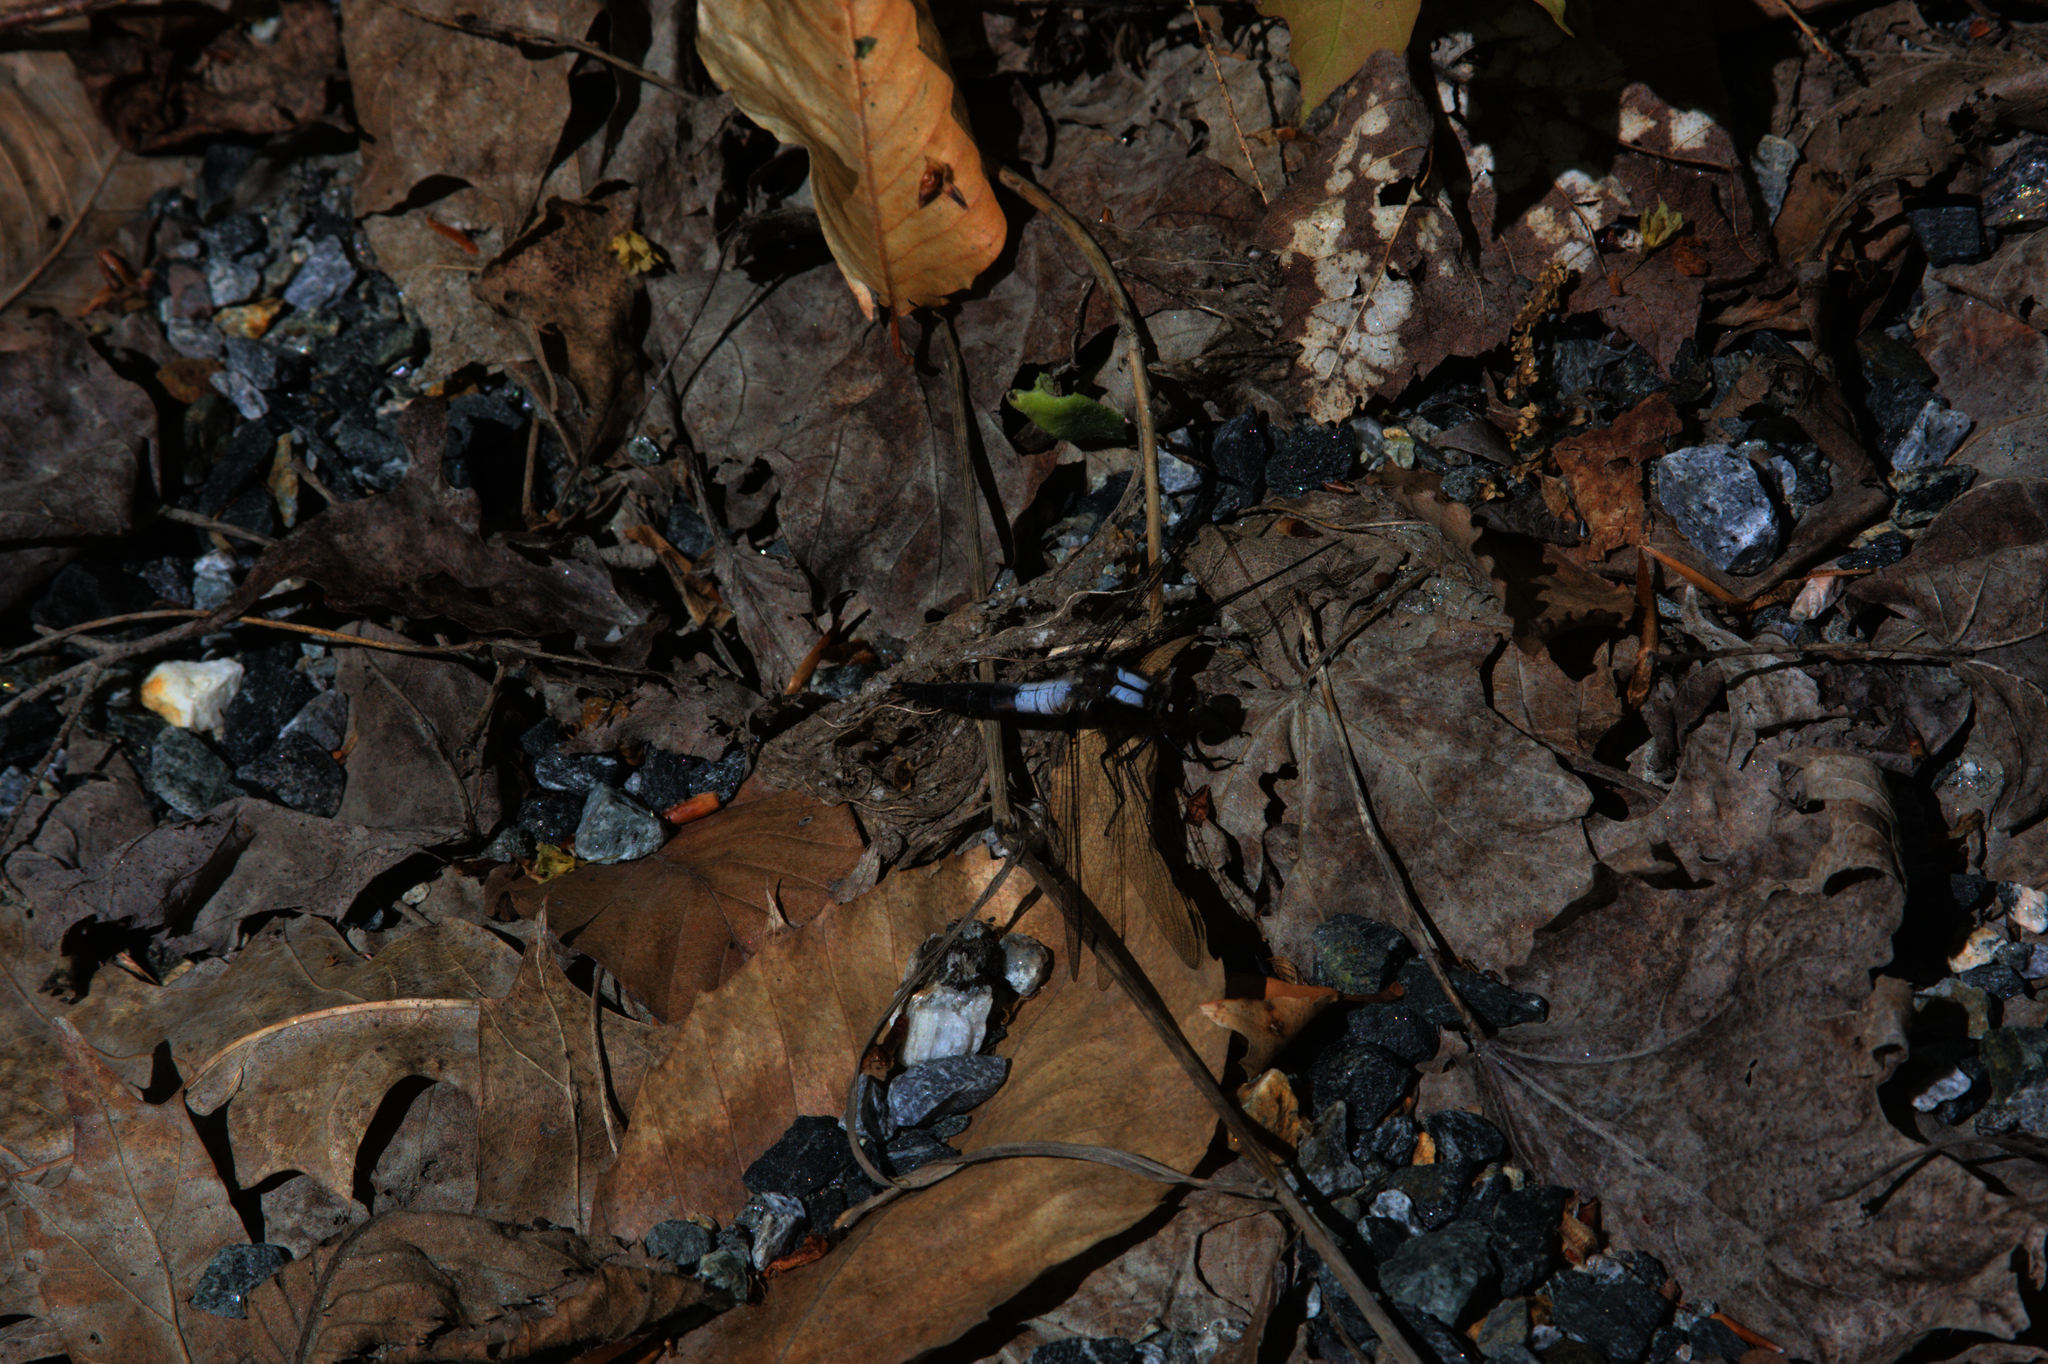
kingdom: Animalia
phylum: Arthropoda
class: Insecta
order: Odonata
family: Libellulidae
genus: Ladona
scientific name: Ladona julia
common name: Chalk-fronted corporal
